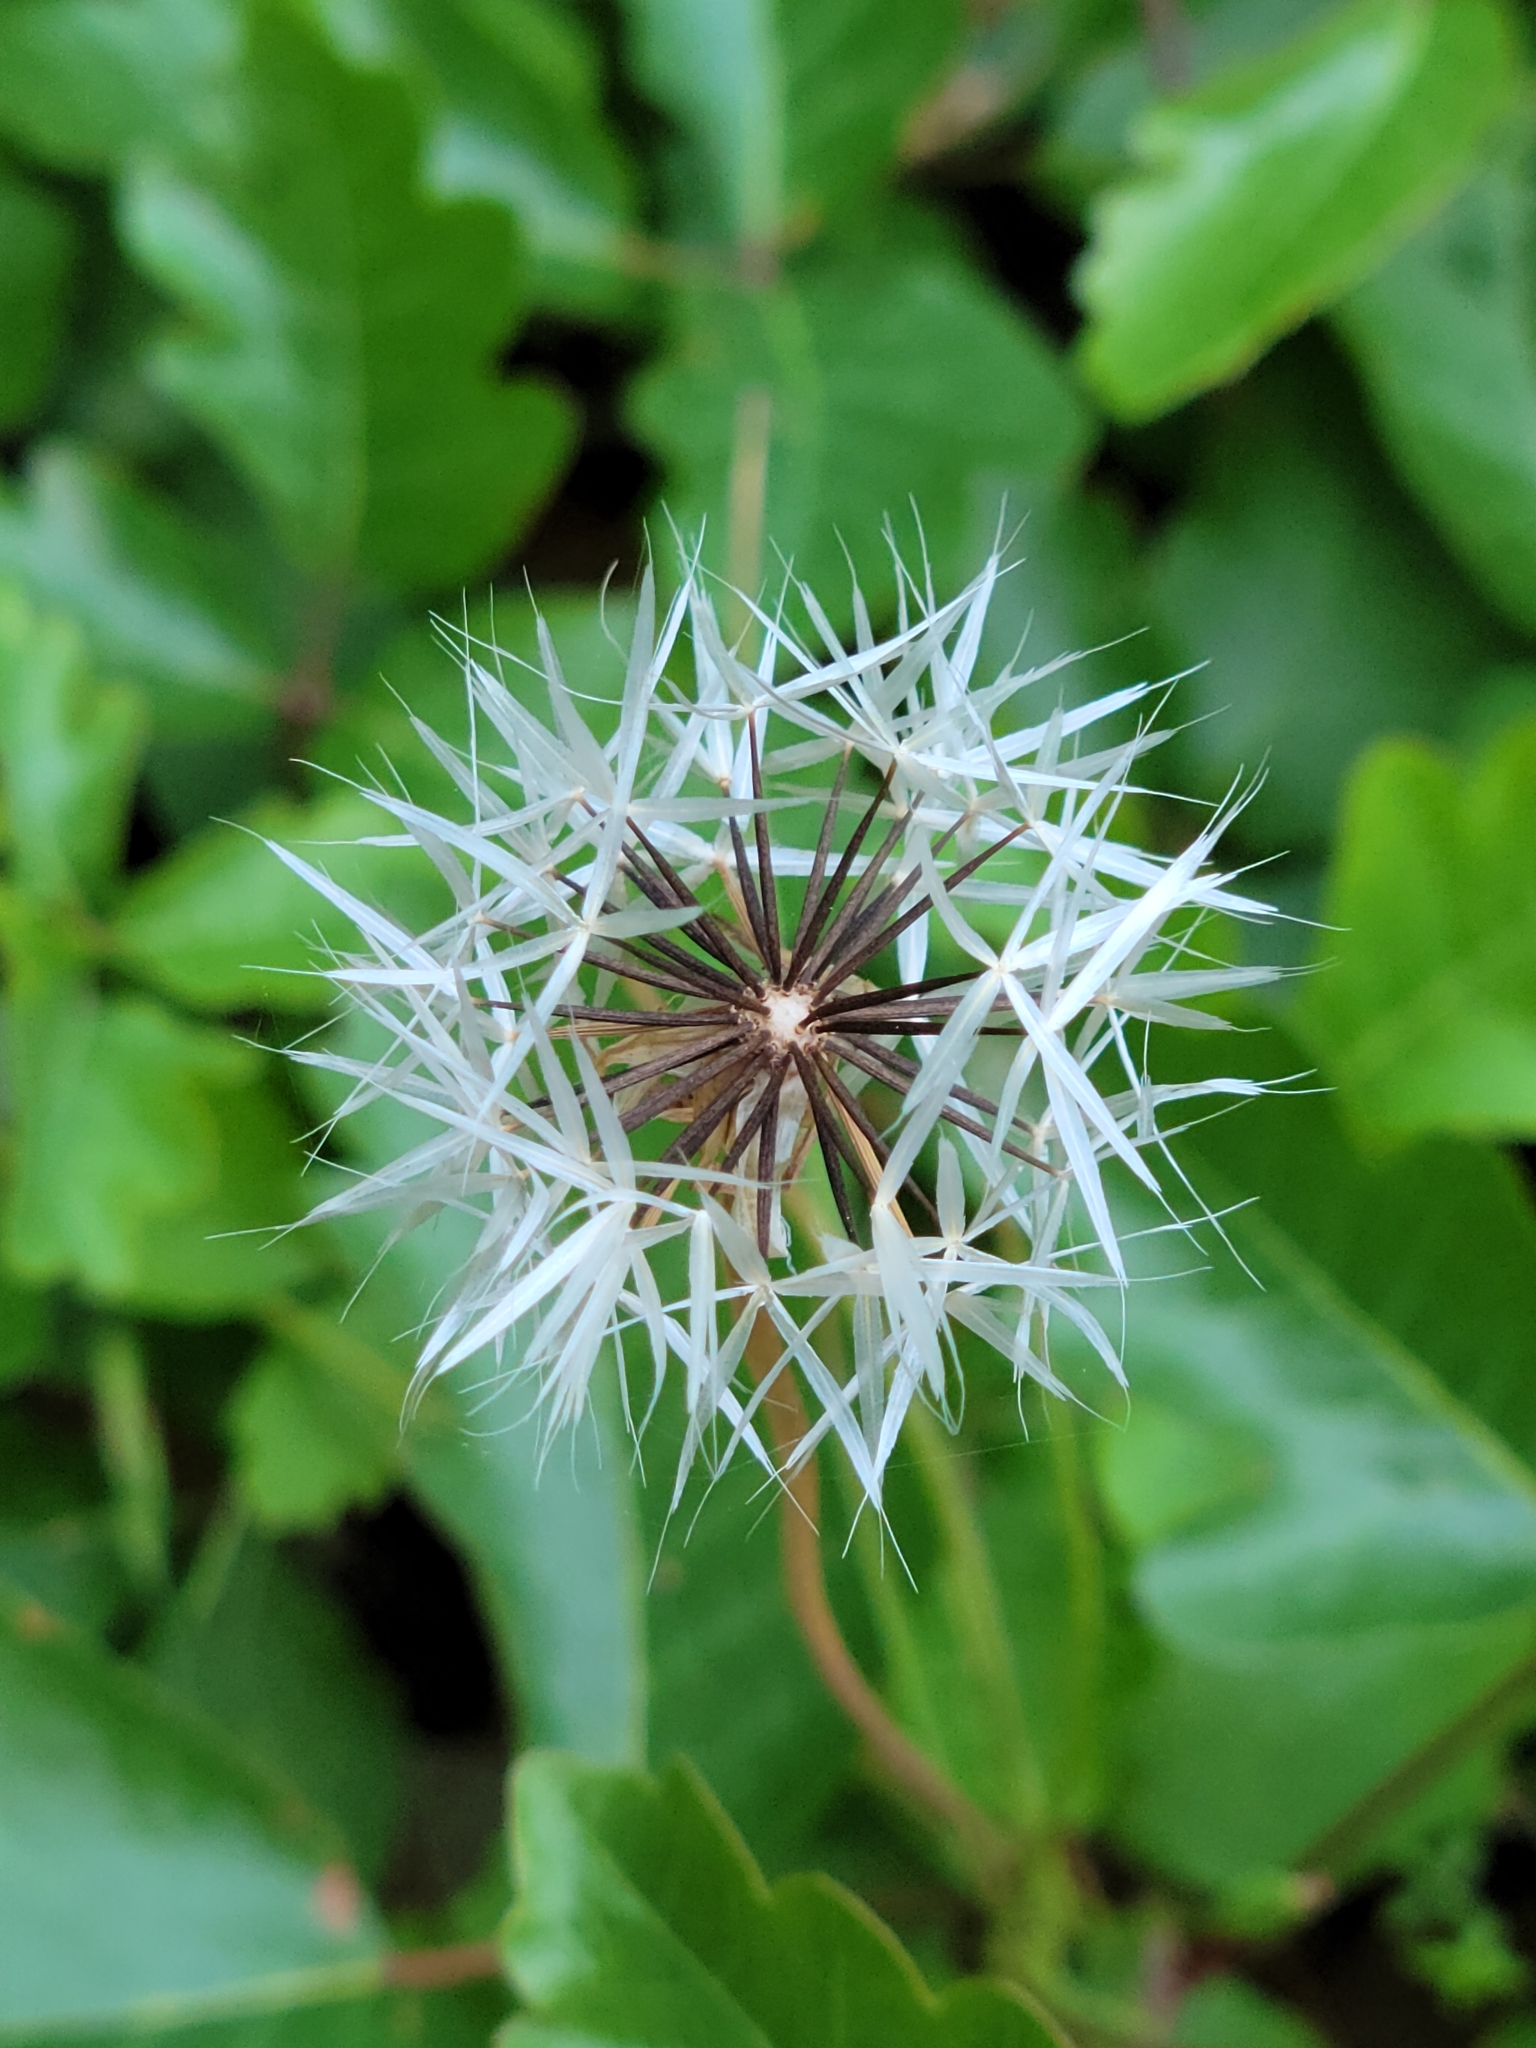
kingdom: Plantae
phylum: Tracheophyta
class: Magnoliopsida
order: Asterales
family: Asteraceae
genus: Microseris
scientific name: Microseris lindleyi
